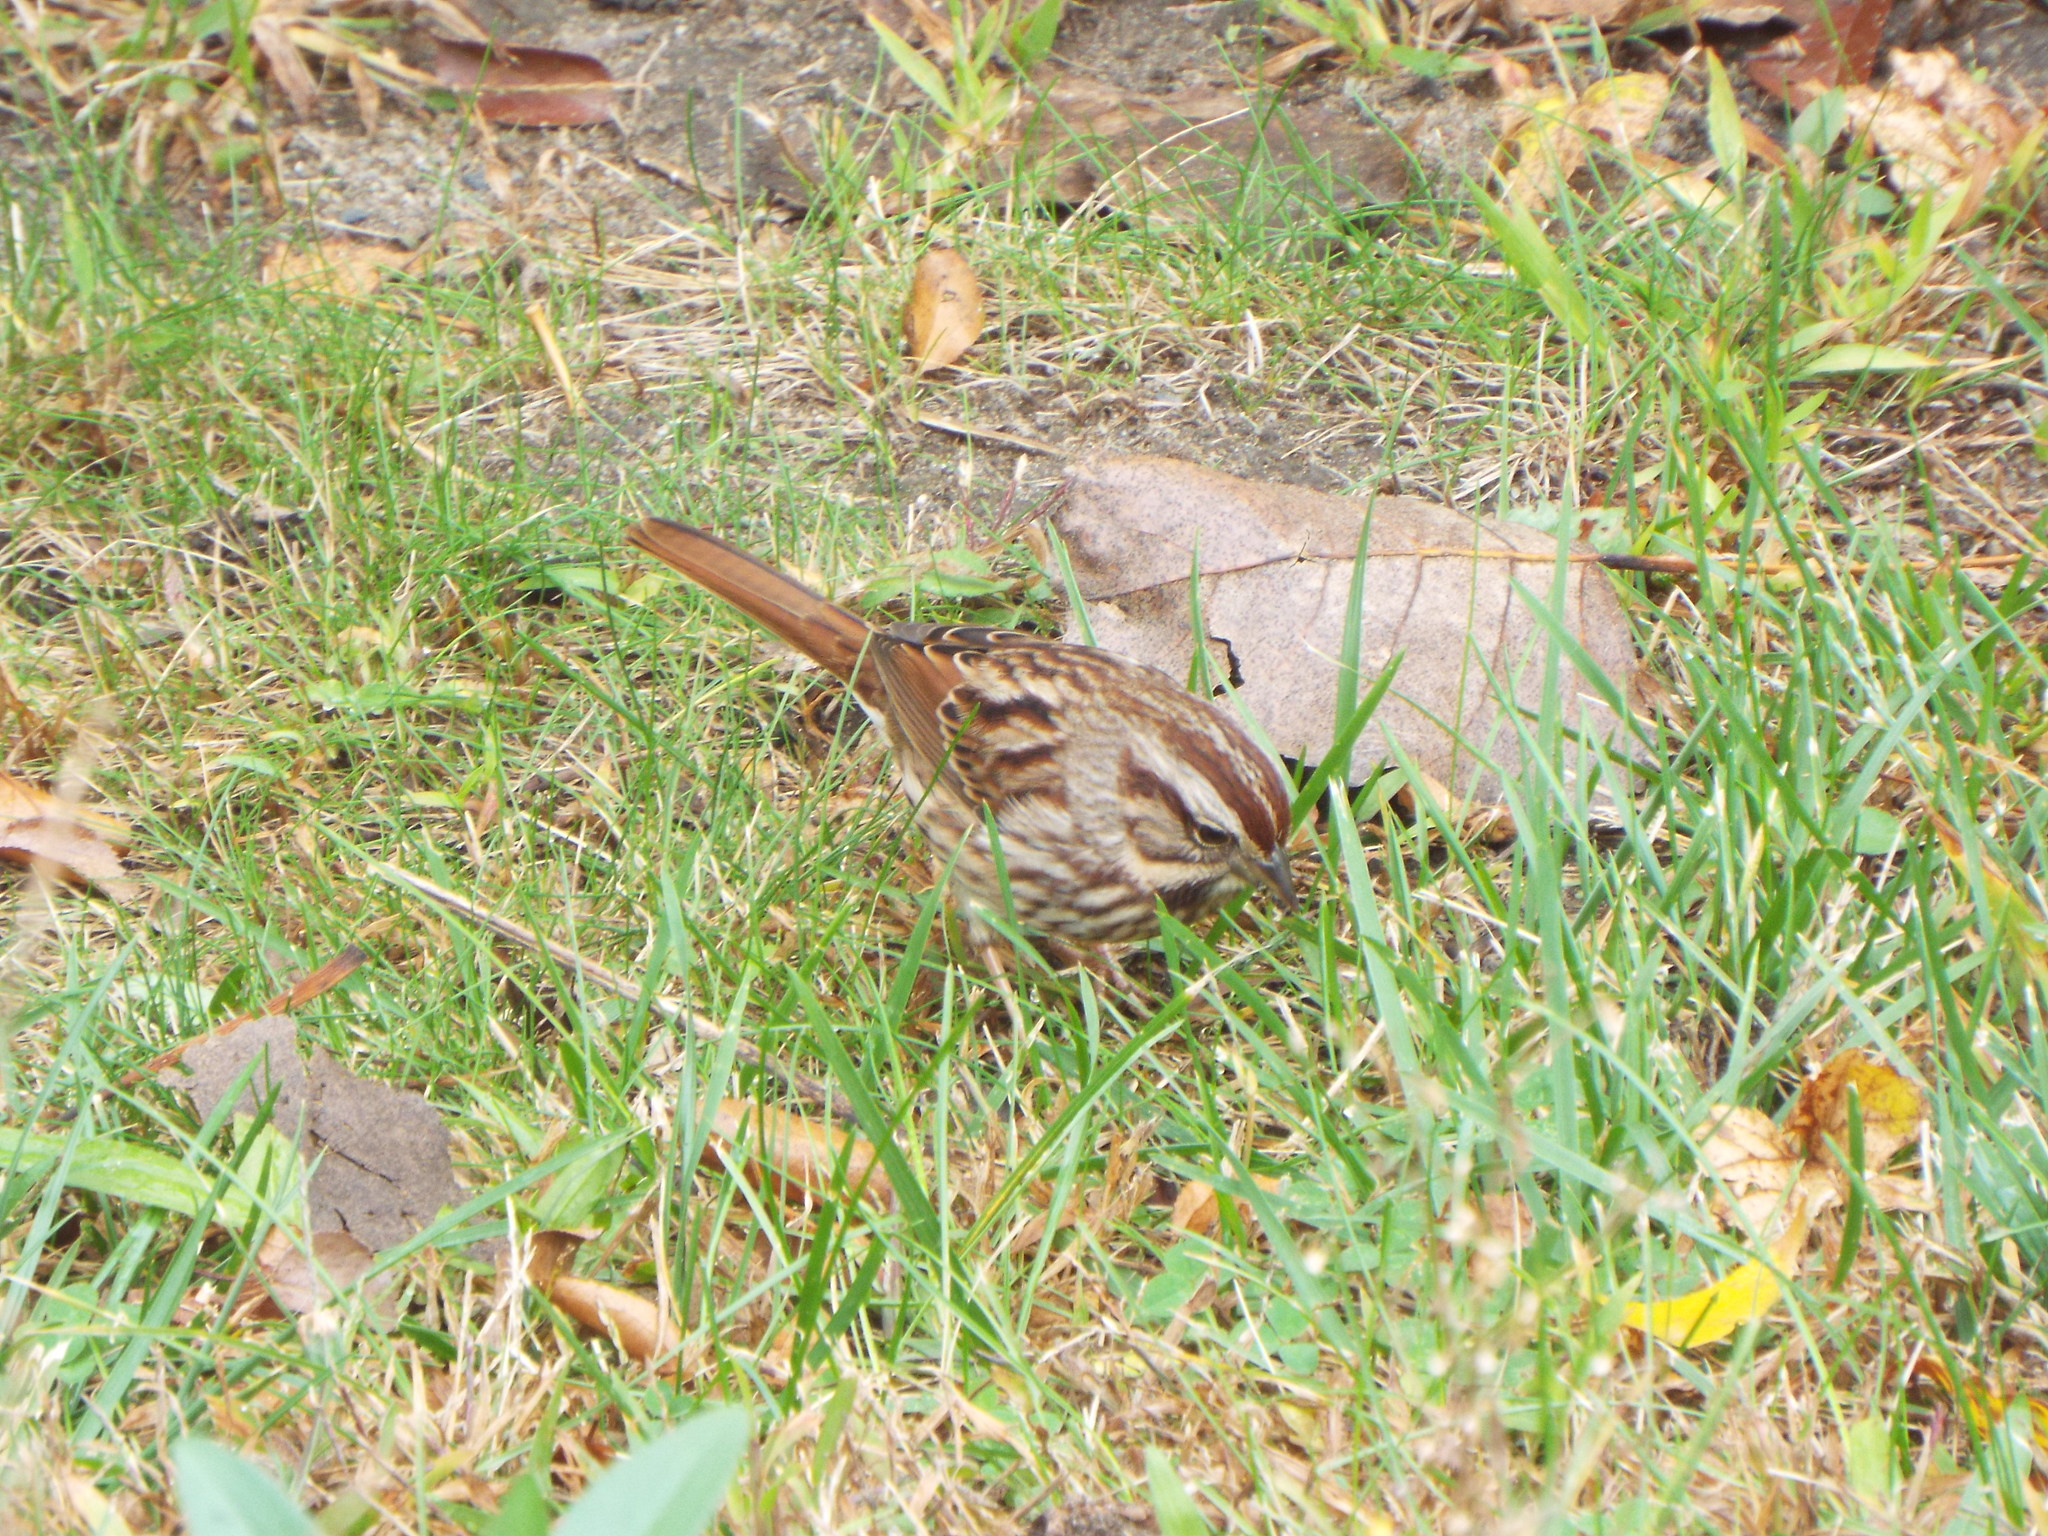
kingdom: Animalia
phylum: Chordata
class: Aves
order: Passeriformes
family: Passerellidae
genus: Melospiza
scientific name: Melospiza melodia
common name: Song sparrow
